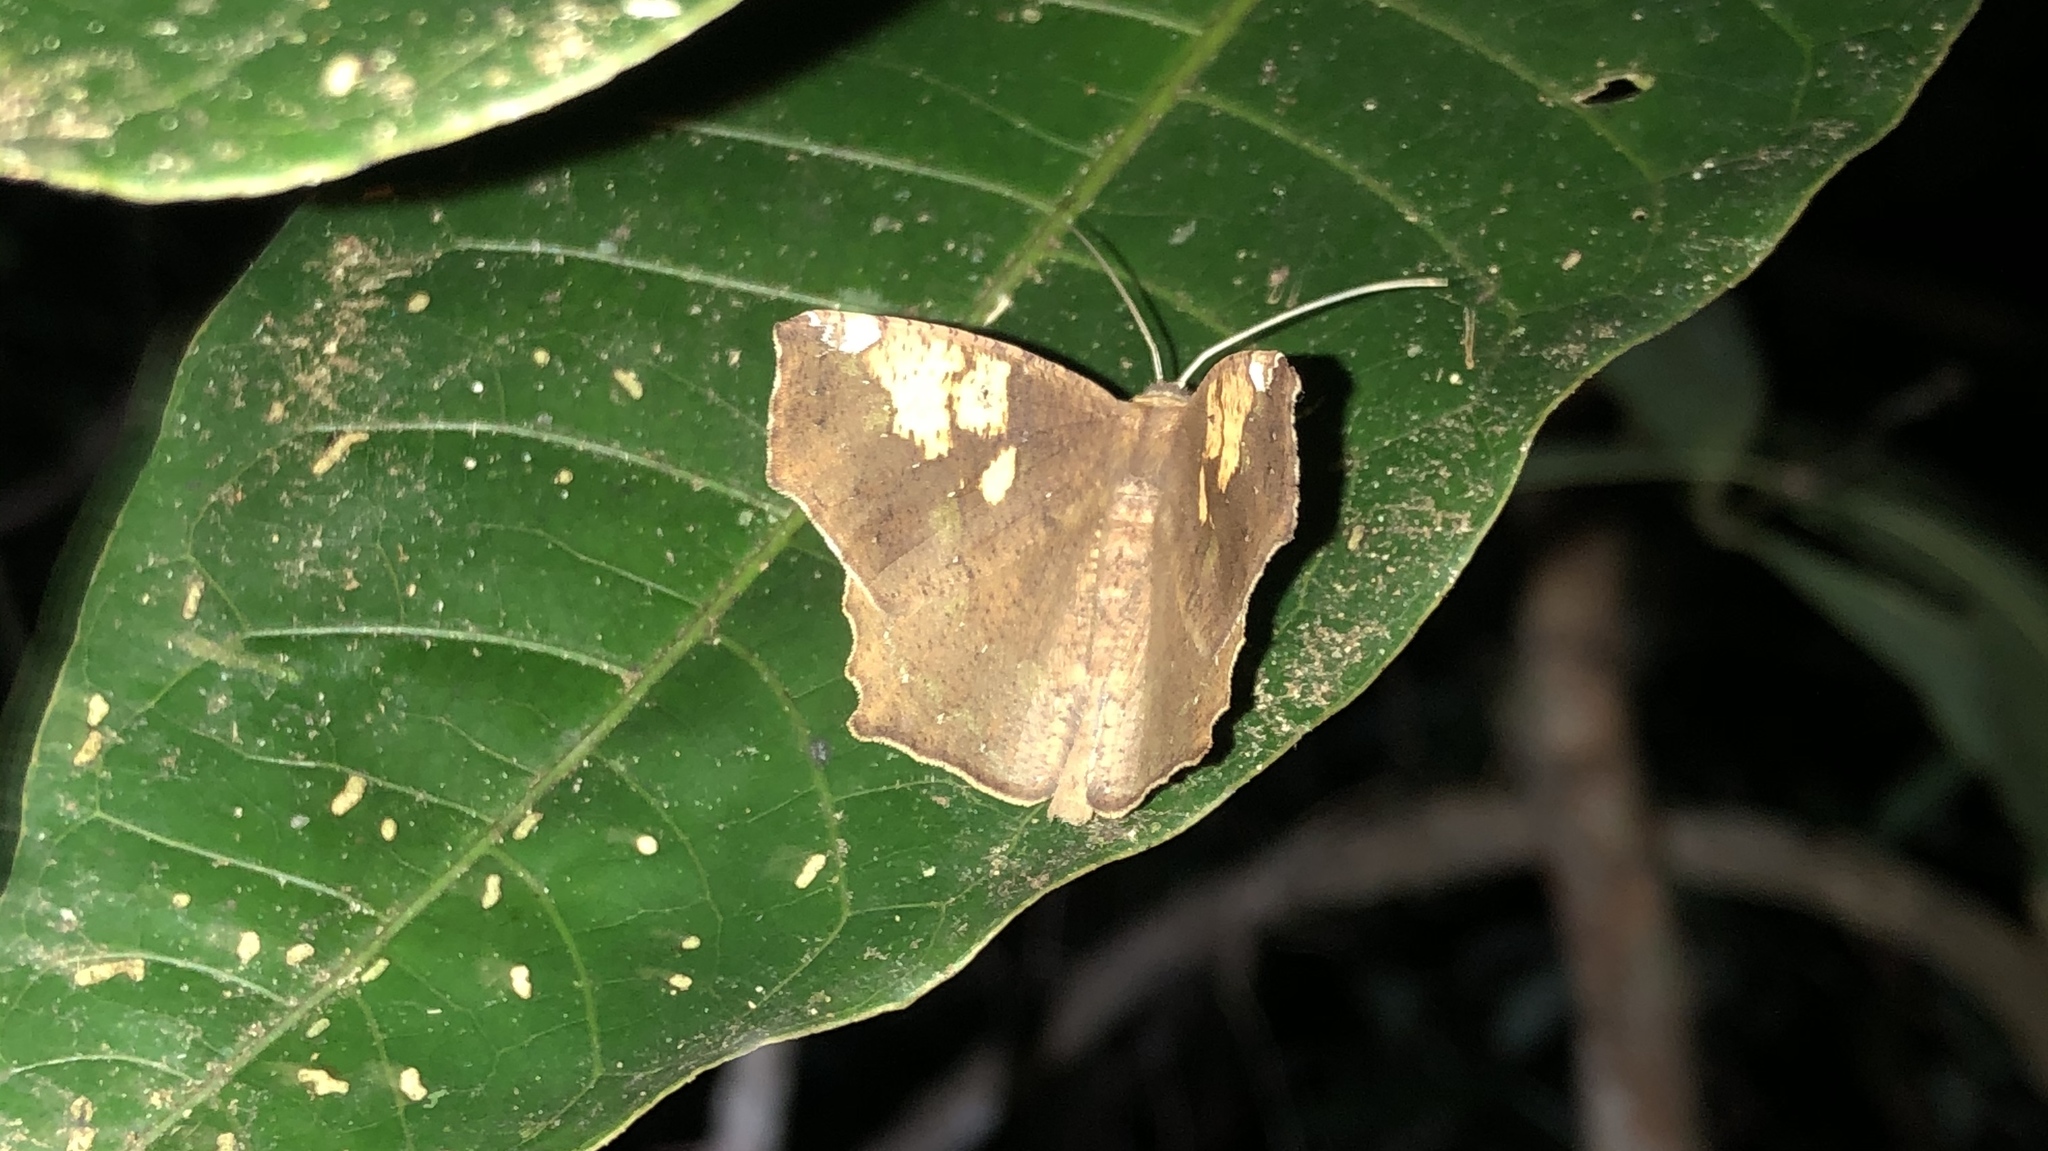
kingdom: Animalia
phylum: Arthropoda
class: Insecta
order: Lepidoptera
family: Geometridae
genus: Paragonia
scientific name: Paragonia cruraria
